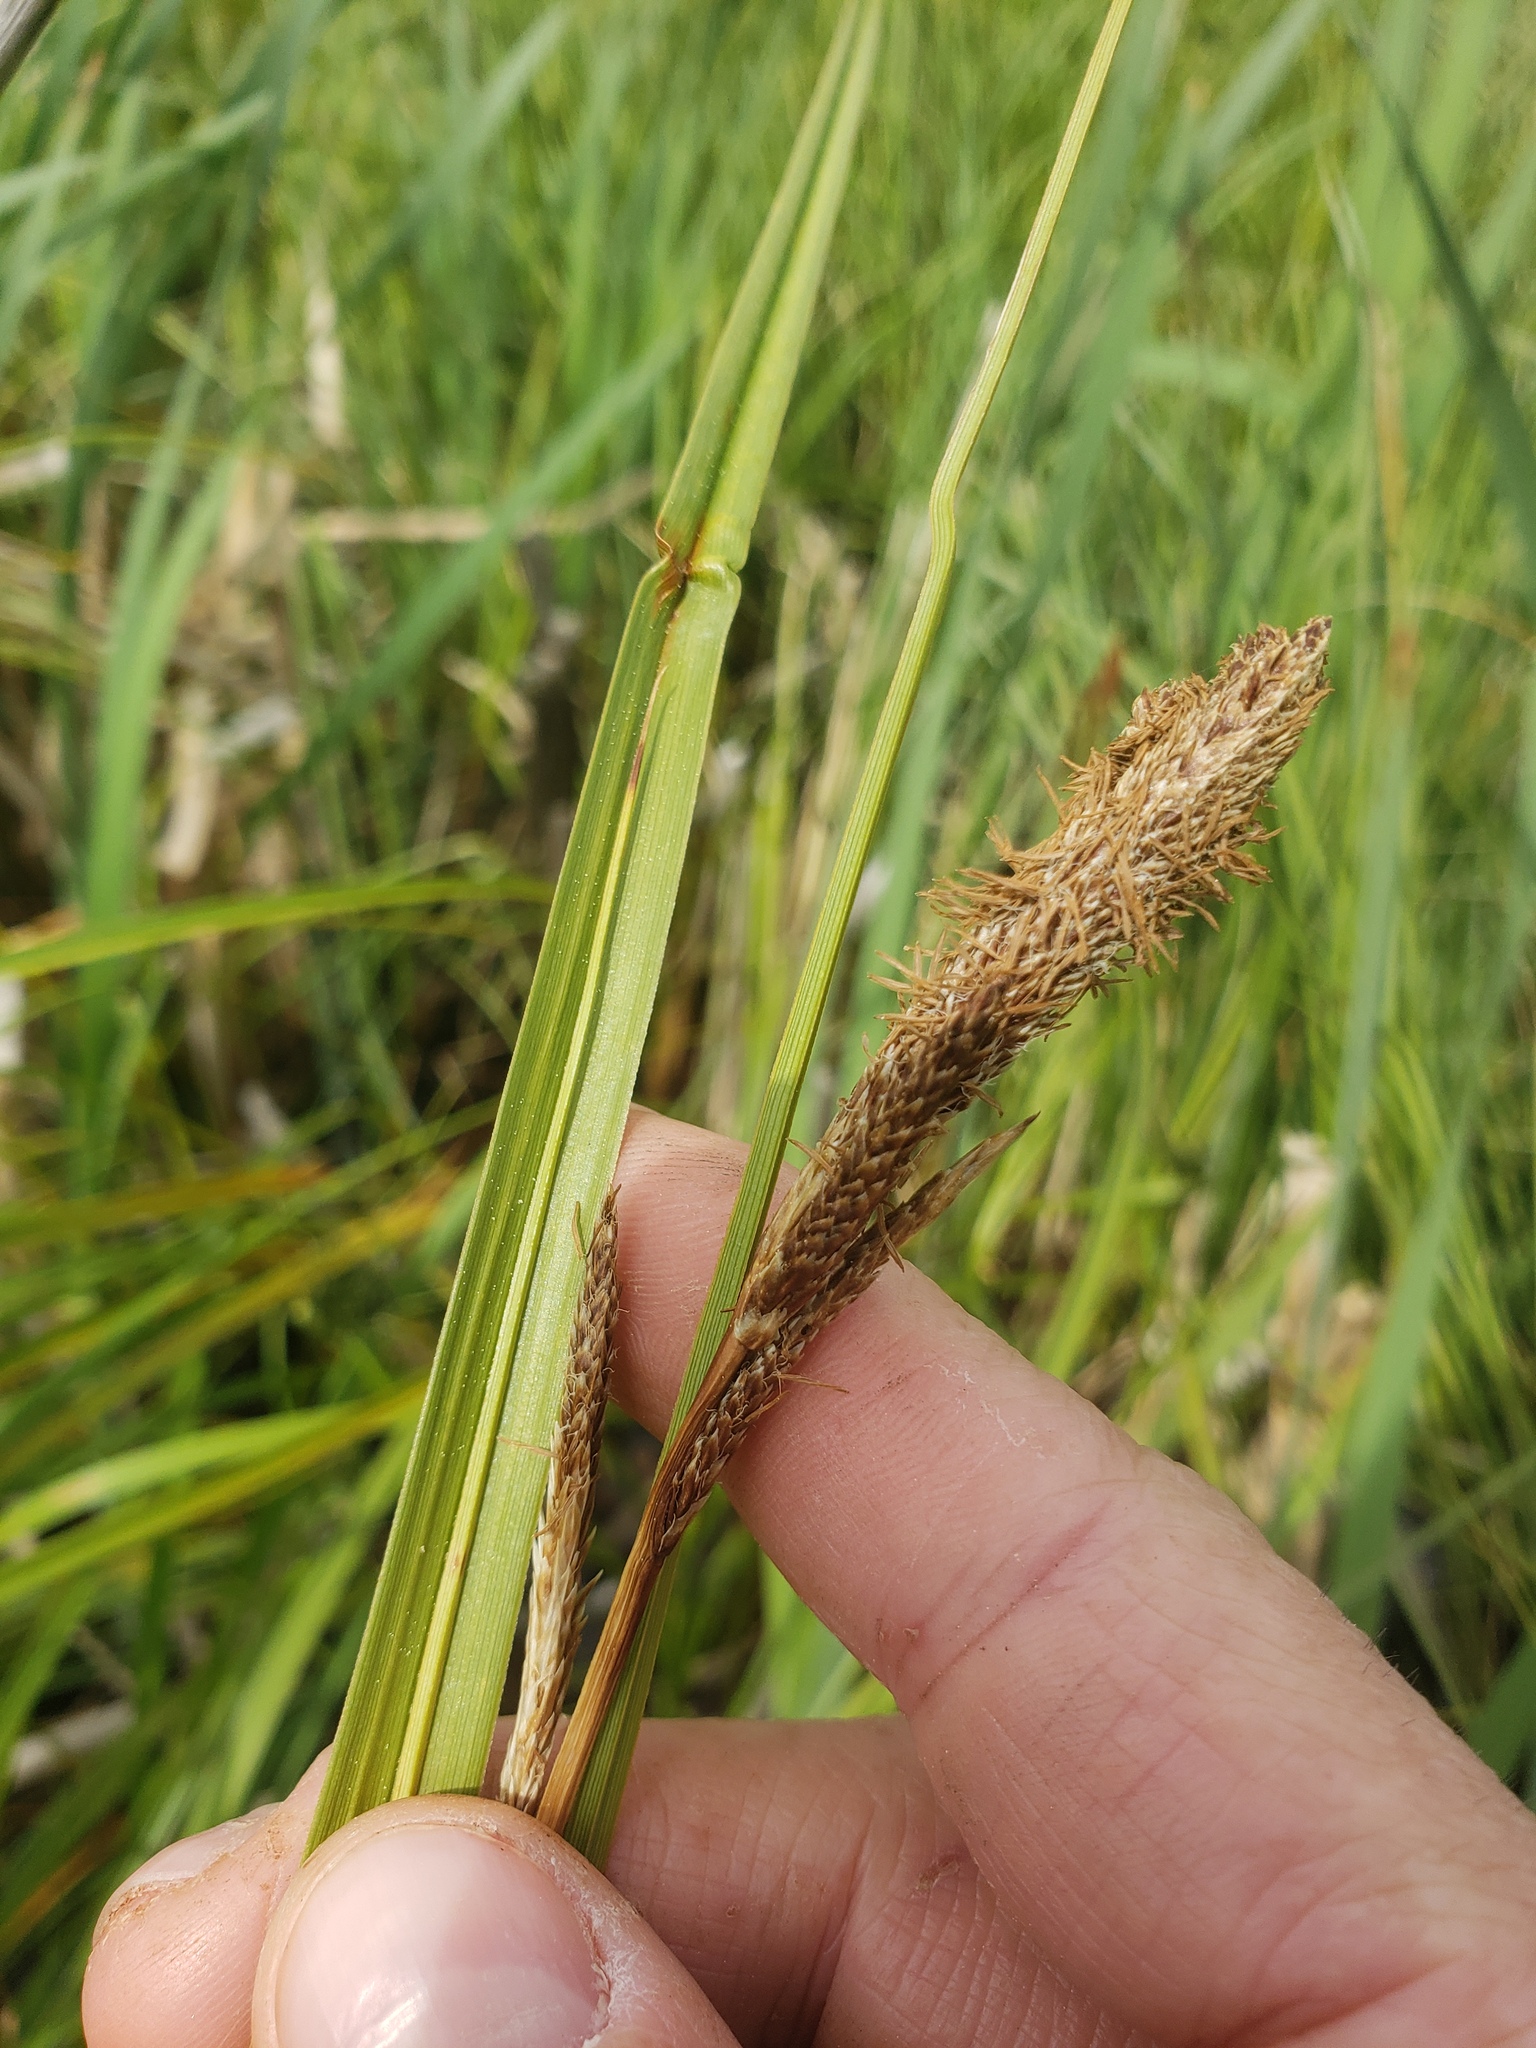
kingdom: Plantae
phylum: Tracheophyta
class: Liliopsida
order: Poales
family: Cyperaceae
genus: Carex
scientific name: Carex utriculata
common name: Beaked sedge
